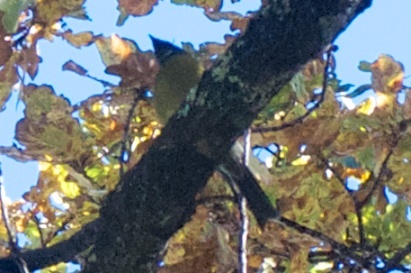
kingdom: Animalia
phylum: Chordata
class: Aves
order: Passeriformes
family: Meliphagidae
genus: Anthornis
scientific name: Anthornis melanura
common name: New zealand bellbird
